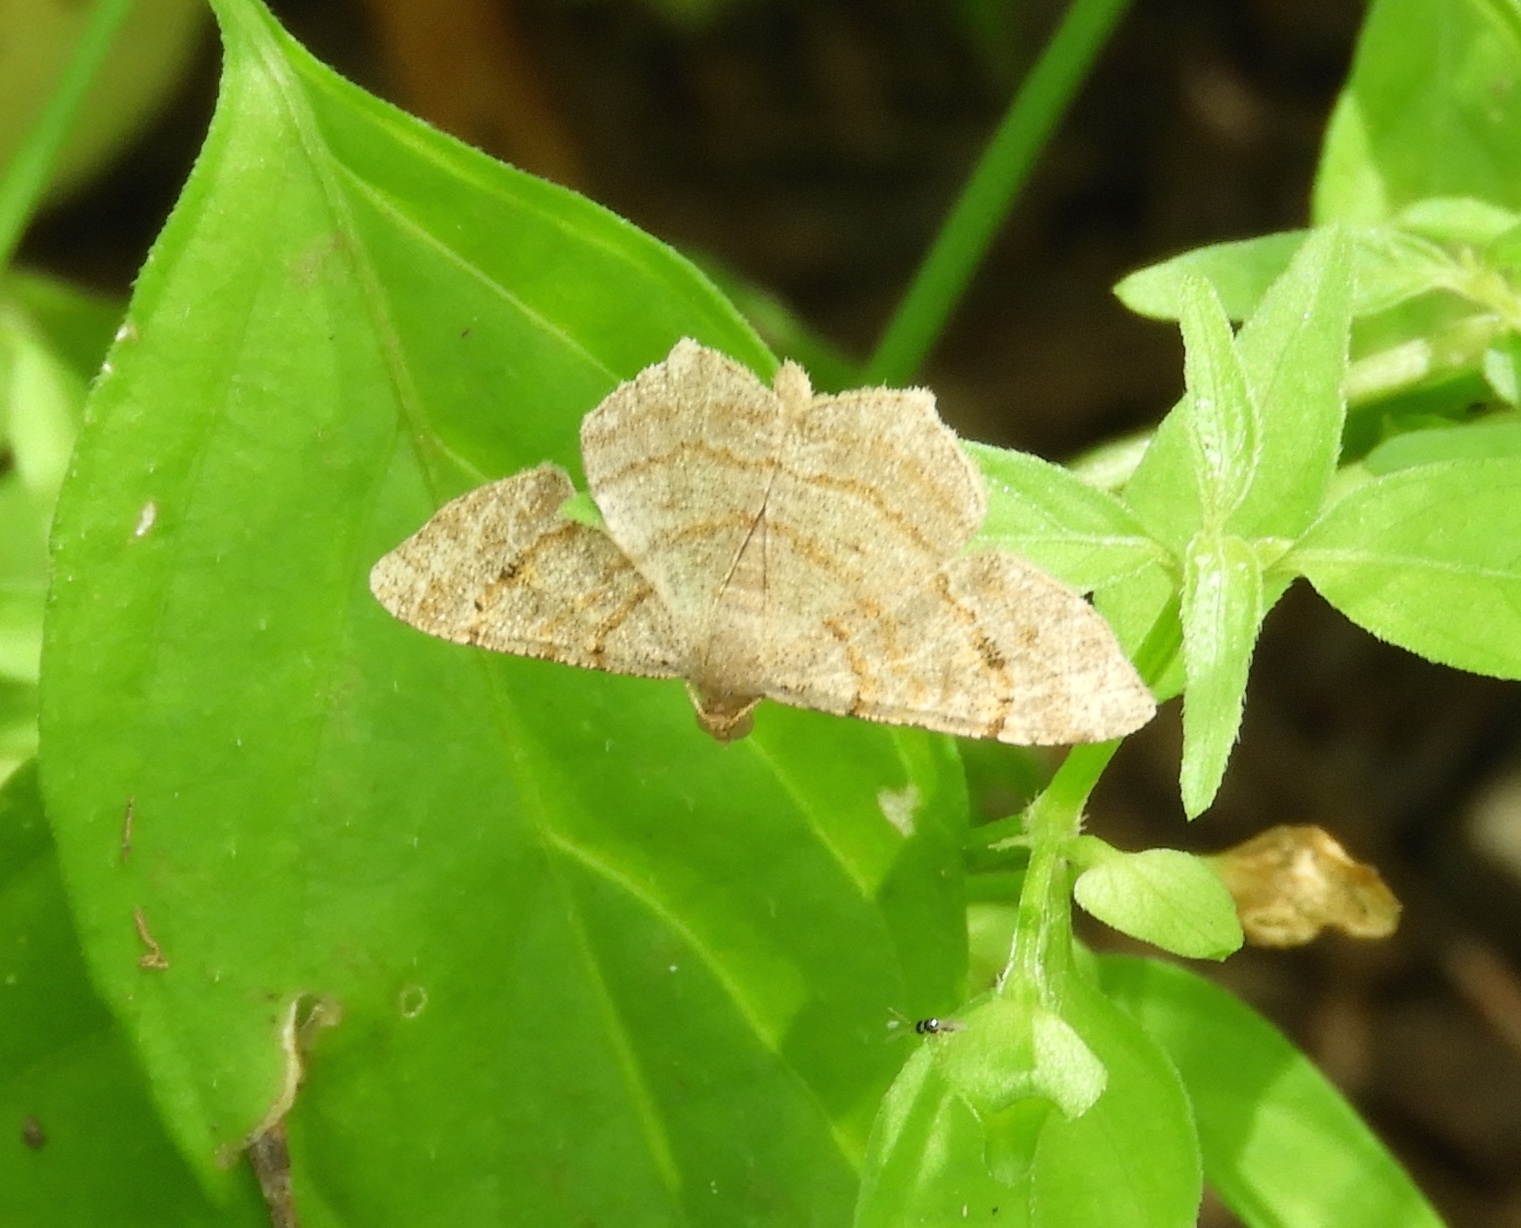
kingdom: Animalia
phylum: Arthropoda
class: Insecta
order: Lepidoptera
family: Geometridae
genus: Macaria
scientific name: Macaria
